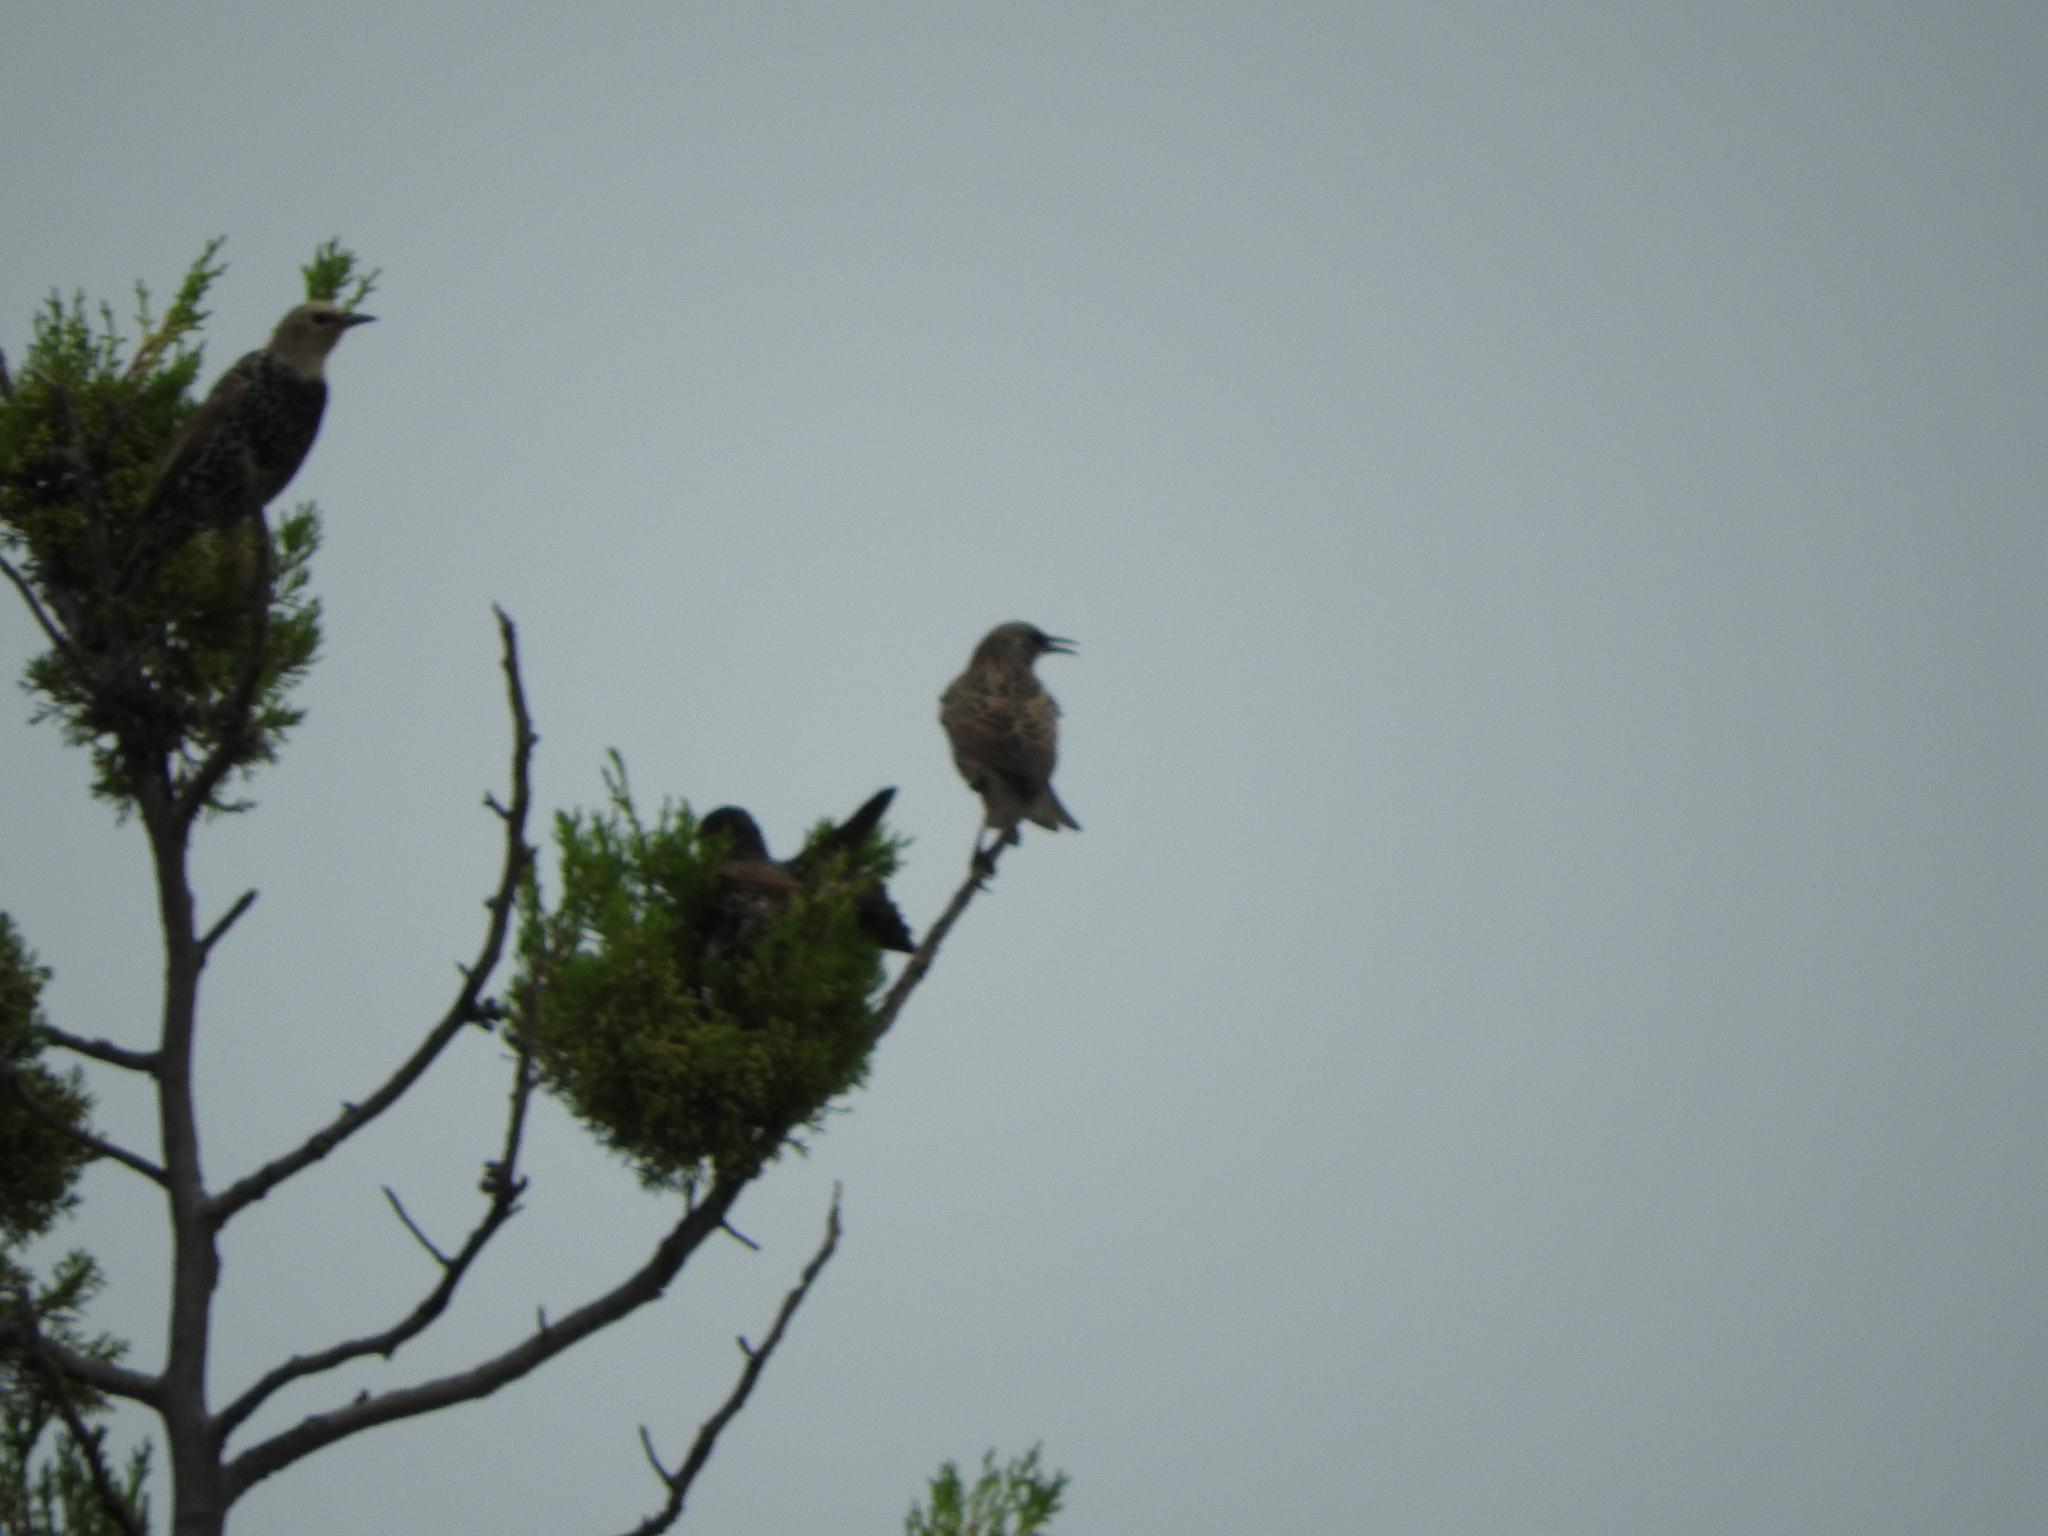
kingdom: Animalia
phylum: Chordata
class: Aves
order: Passeriformes
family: Sturnidae
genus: Sturnus
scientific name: Sturnus vulgaris
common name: Common starling
